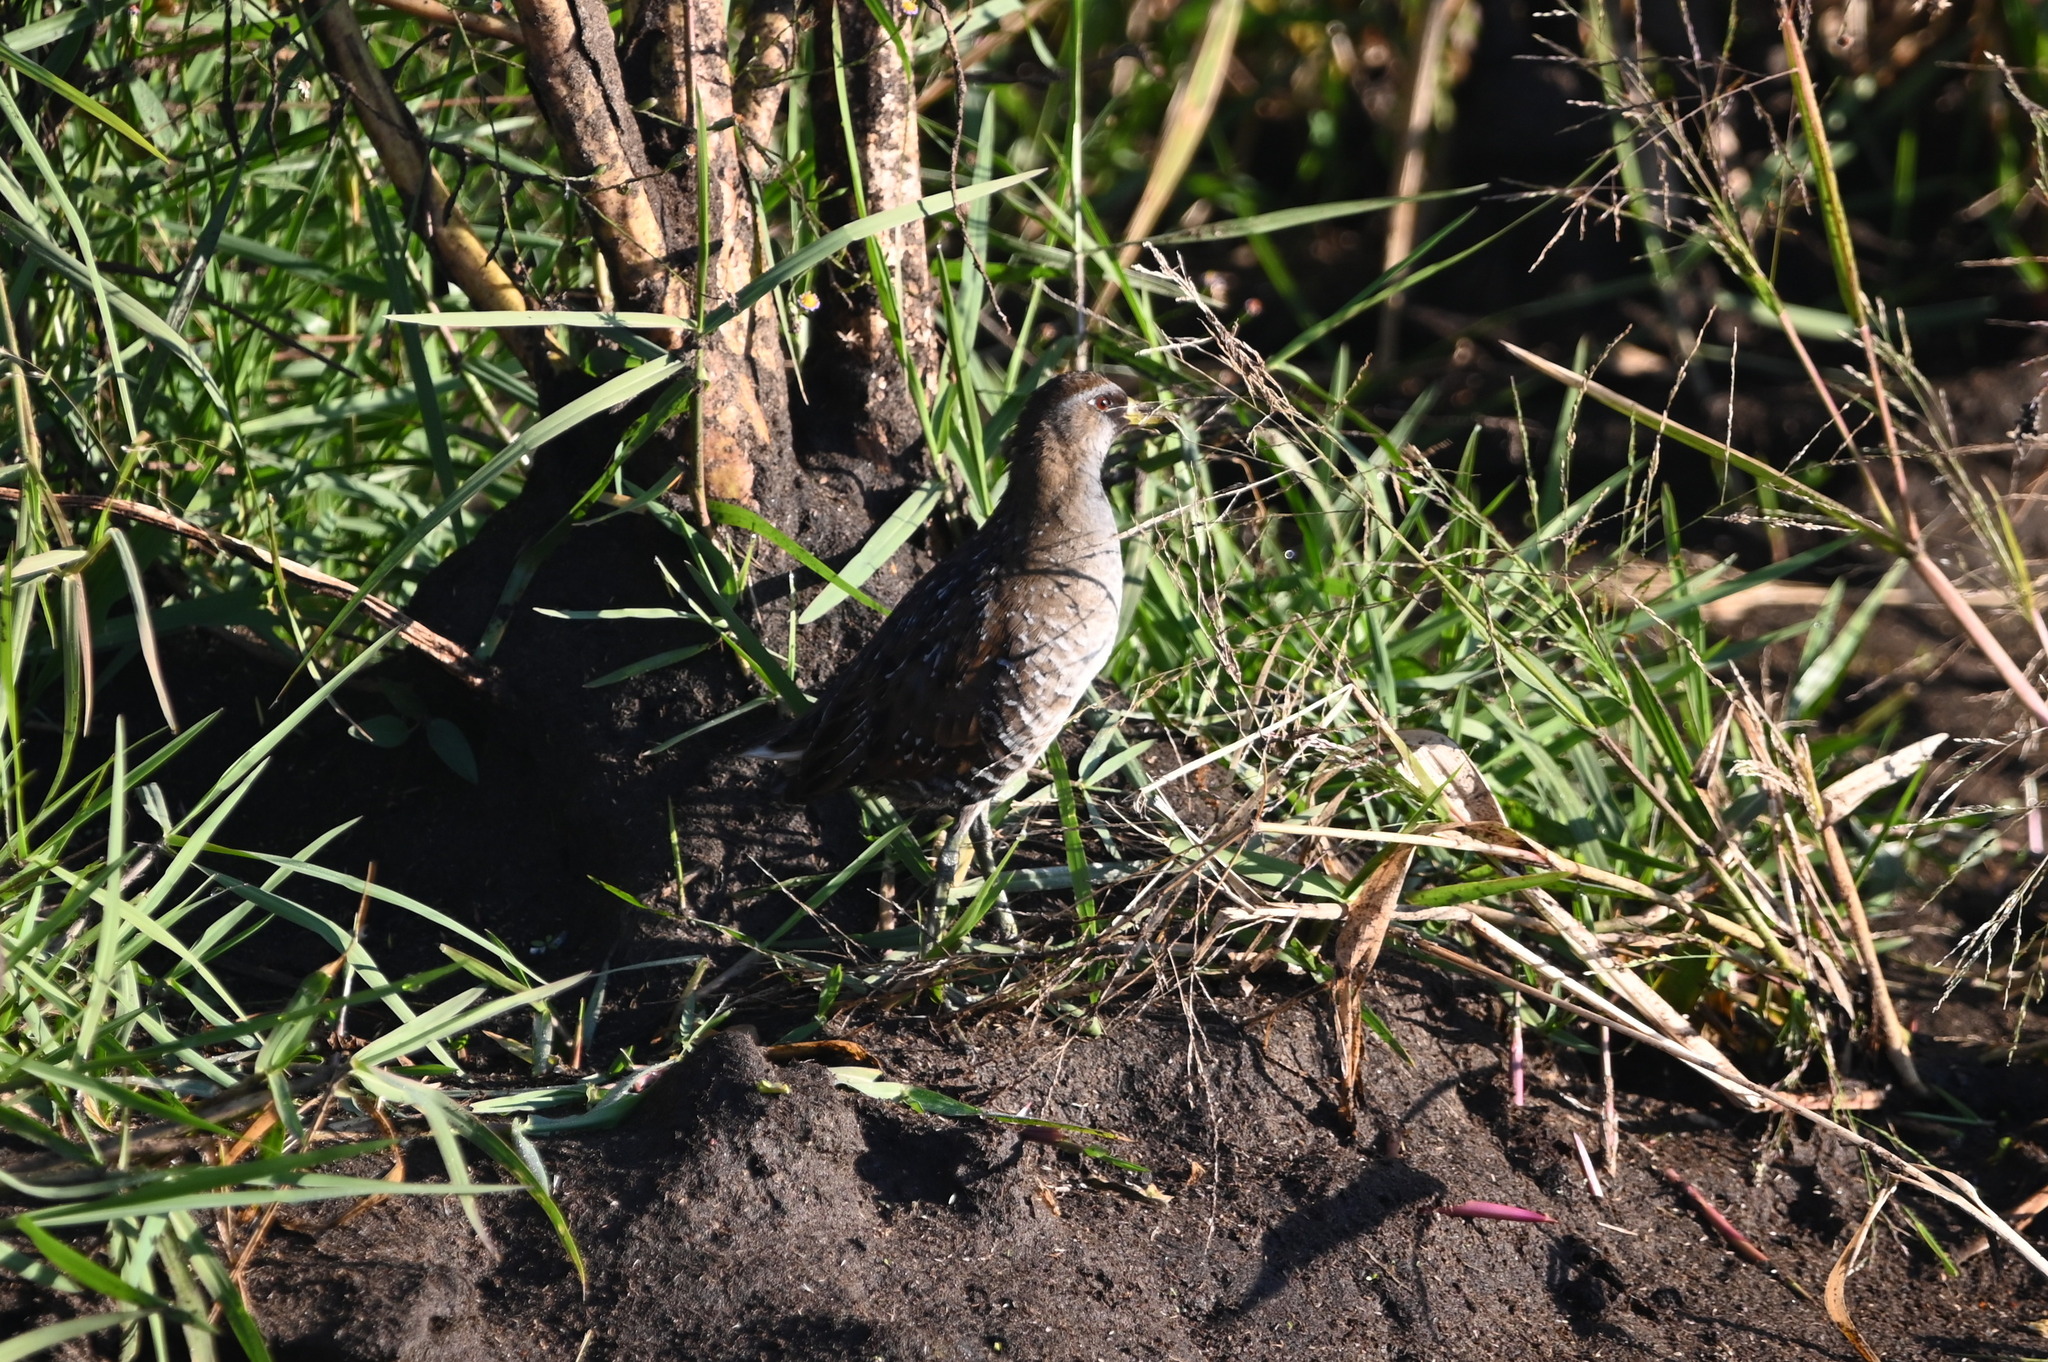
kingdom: Animalia
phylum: Chordata
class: Aves
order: Gruiformes
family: Rallidae
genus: Porzana
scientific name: Porzana carolina
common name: Sora
